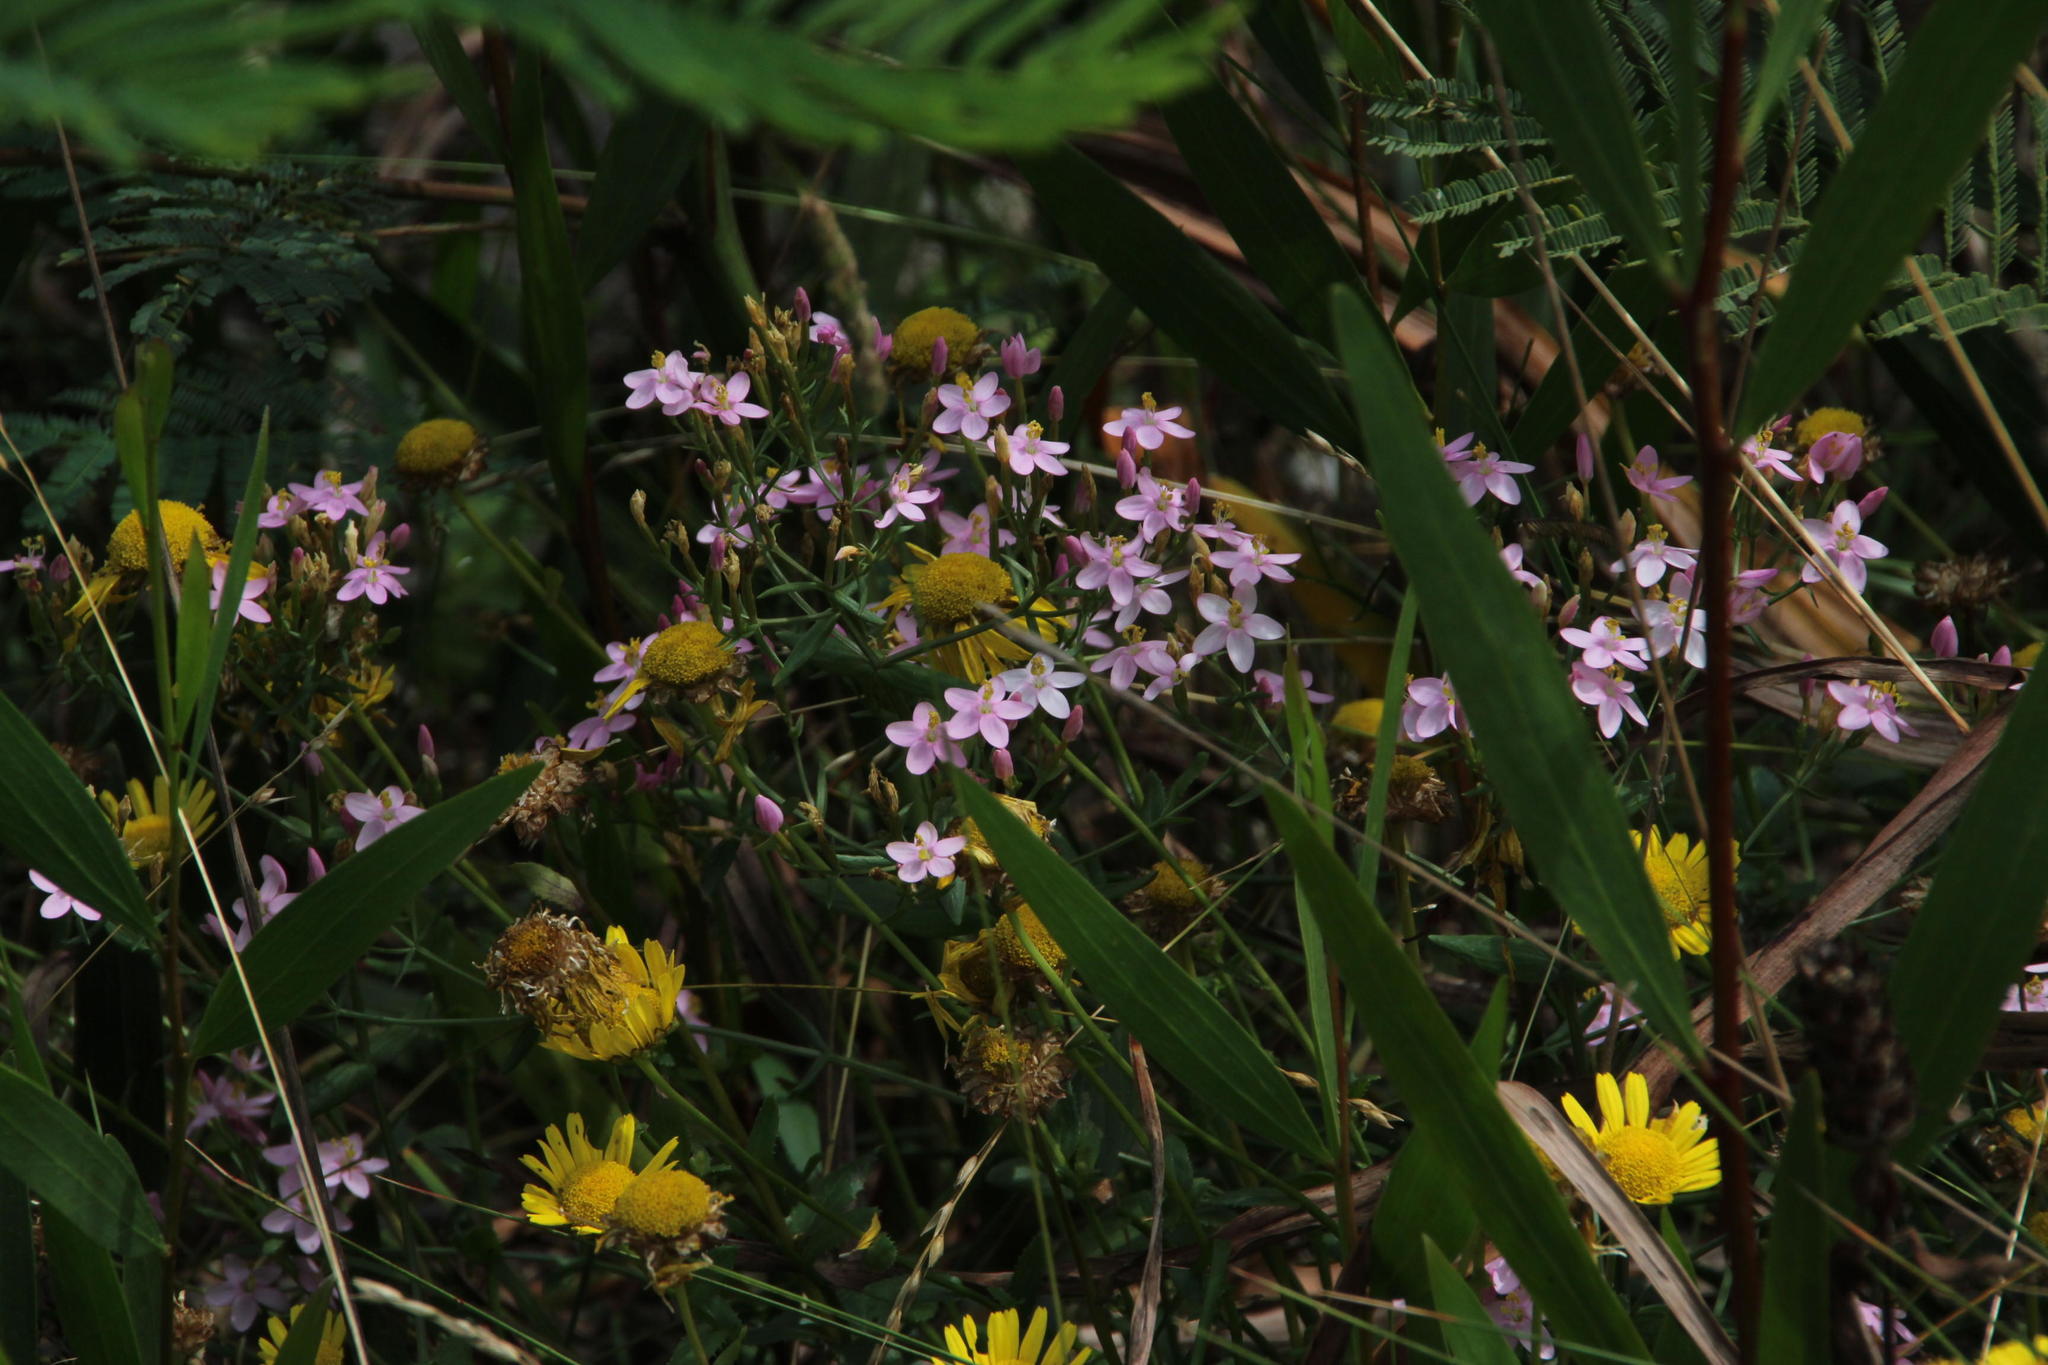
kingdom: Plantae
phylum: Tracheophyta
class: Magnoliopsida
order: Asterales
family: Asteraceae
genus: Lepidophorum
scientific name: Lepidophorum repandum
